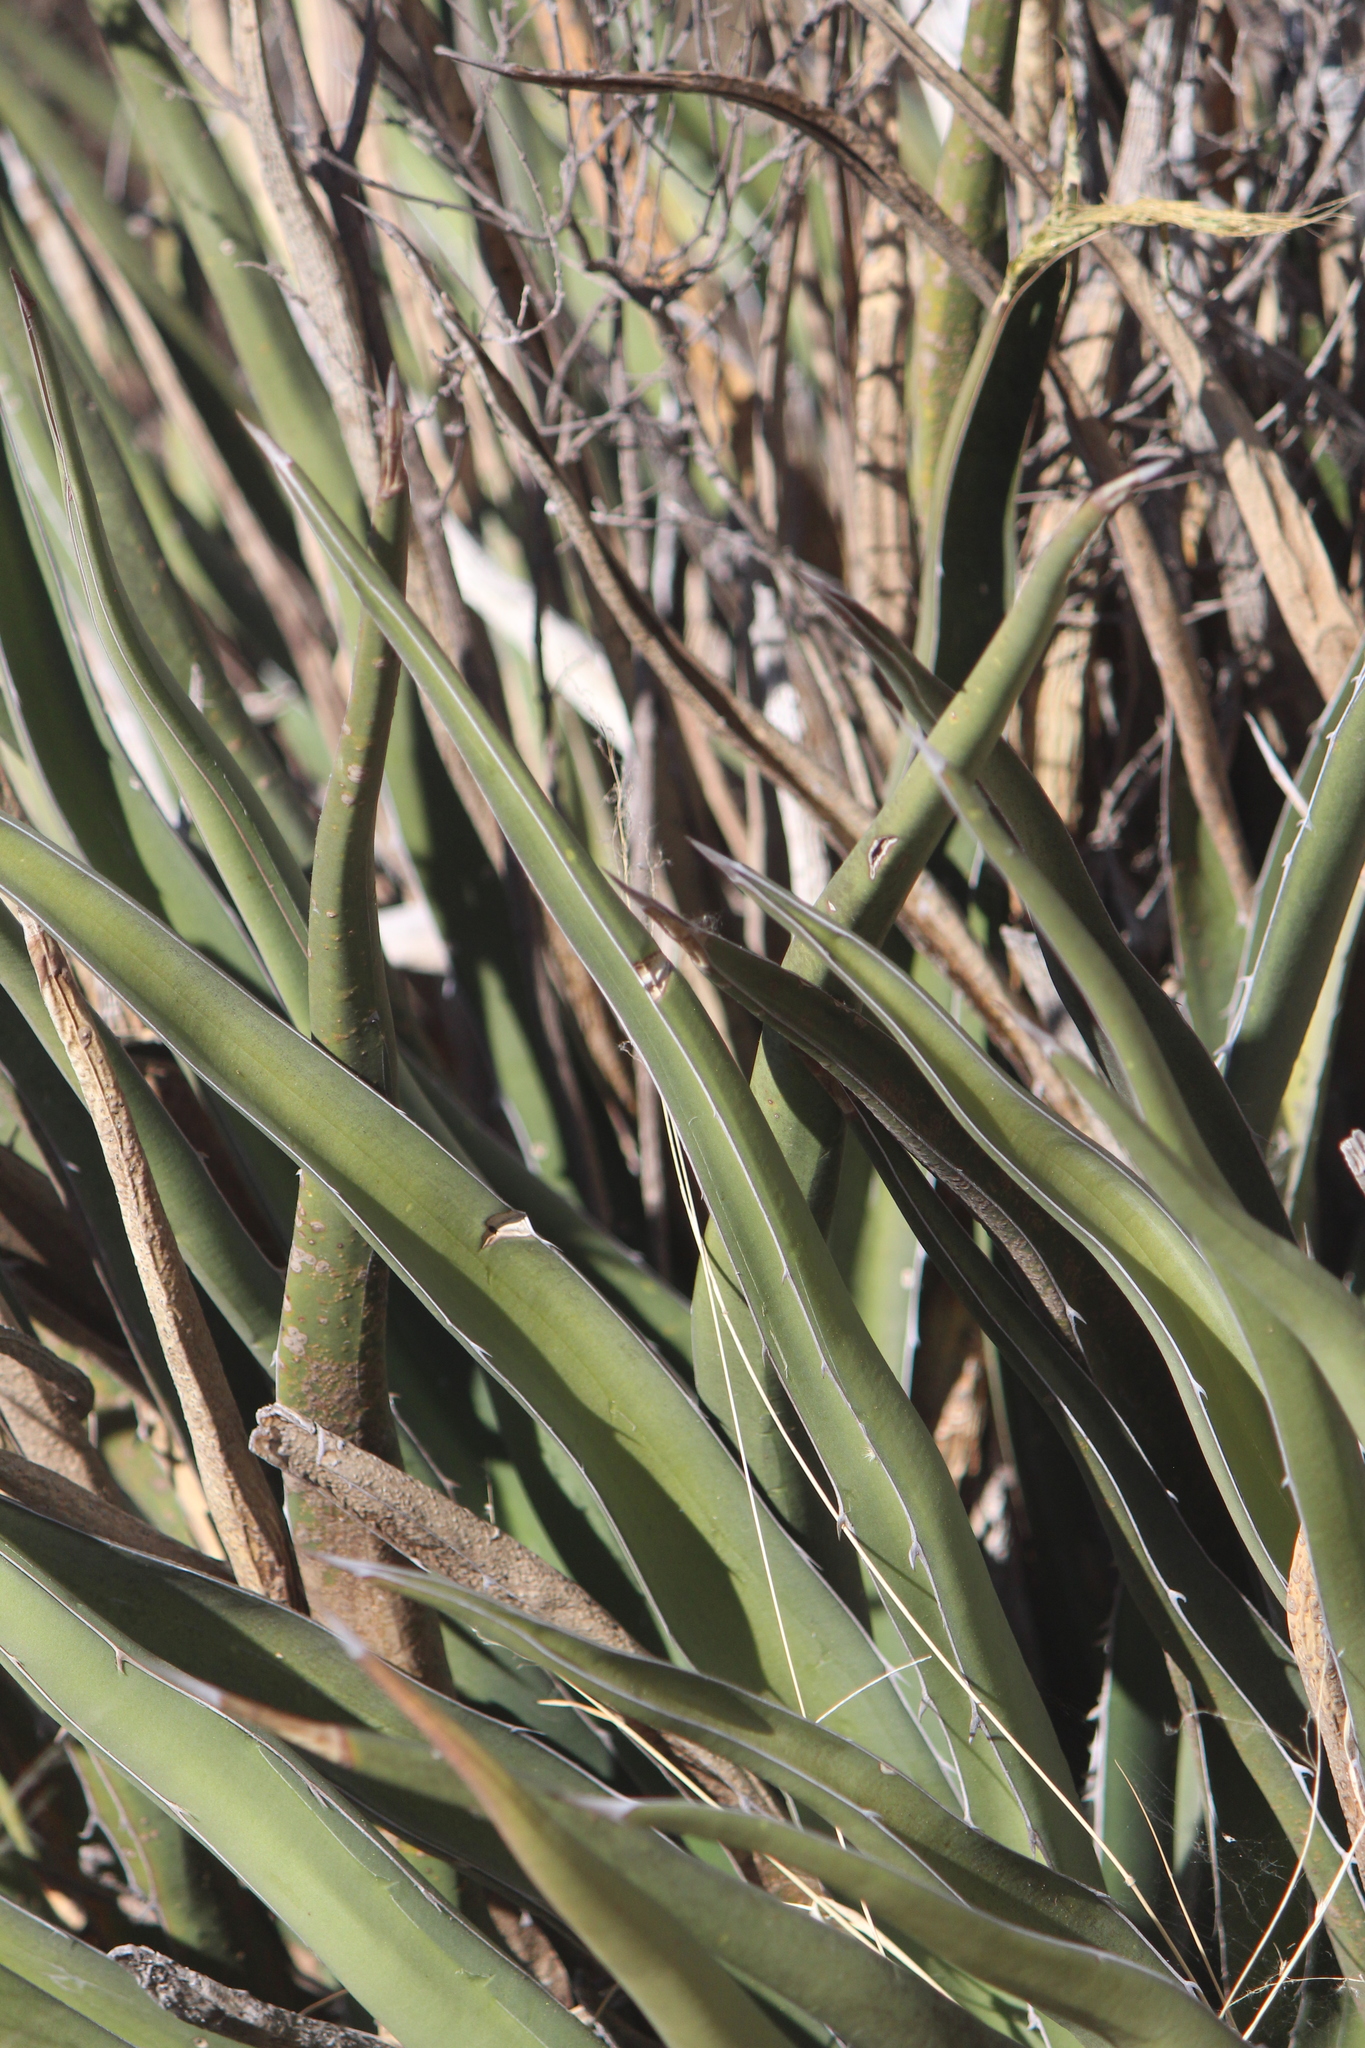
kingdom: Plantae
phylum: Tracheophyta
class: Liliopsida
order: Asparagales
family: Asparagaceae
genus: Agave
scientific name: Agave lechuguilla
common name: Lecheguilla agave
